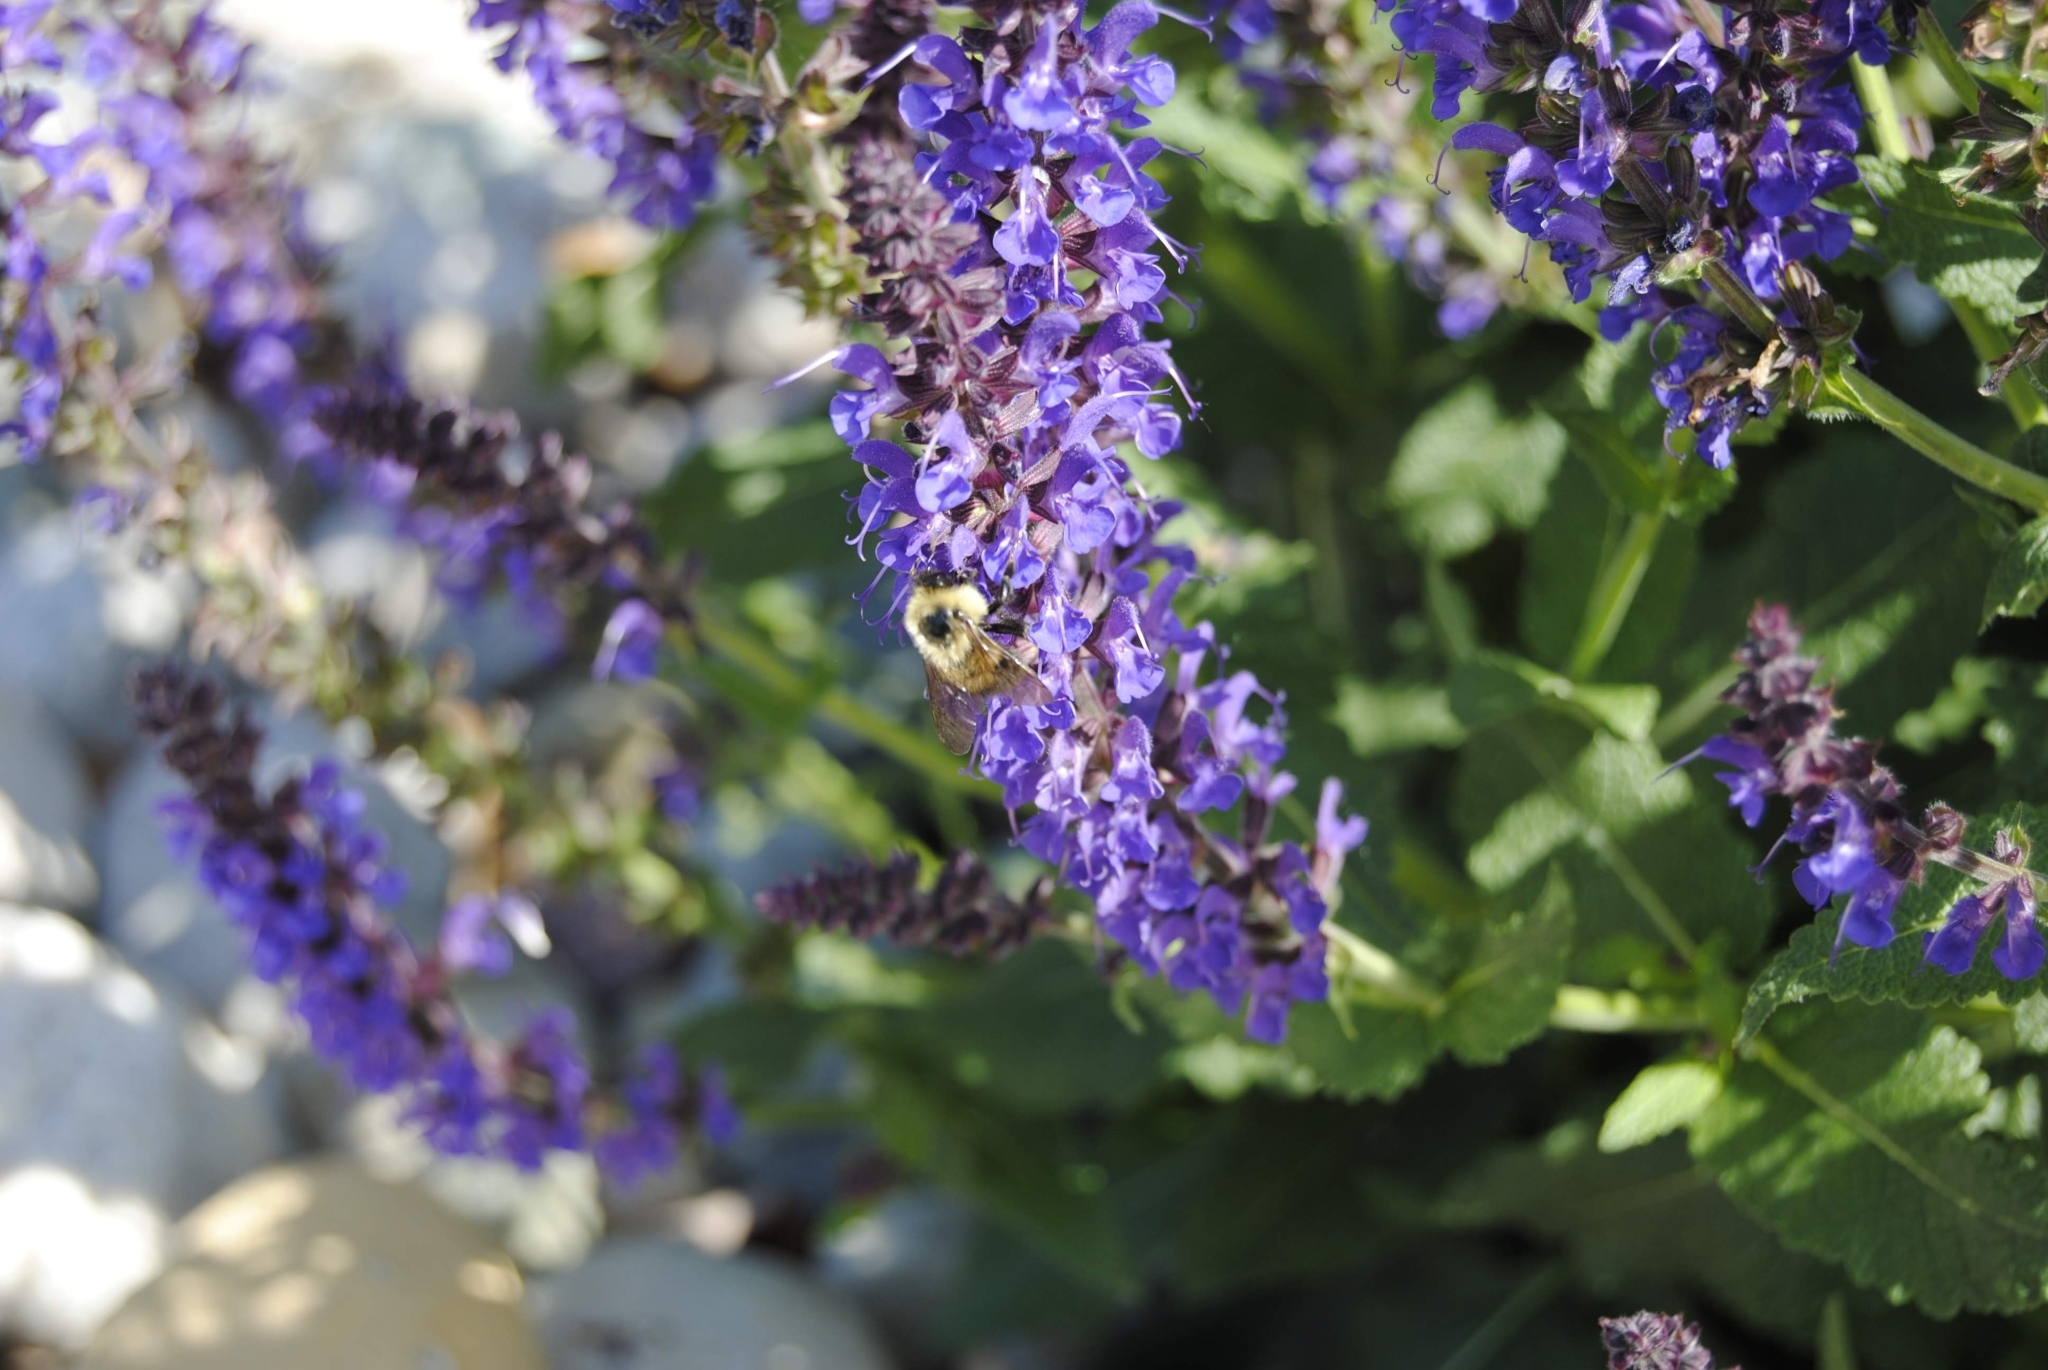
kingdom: Animalia
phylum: Arthropoda
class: Insecta
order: Hymenoptera
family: Apidae
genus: Bombus
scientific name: Bombus bimaculatus
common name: Two-spotted bumble bee
